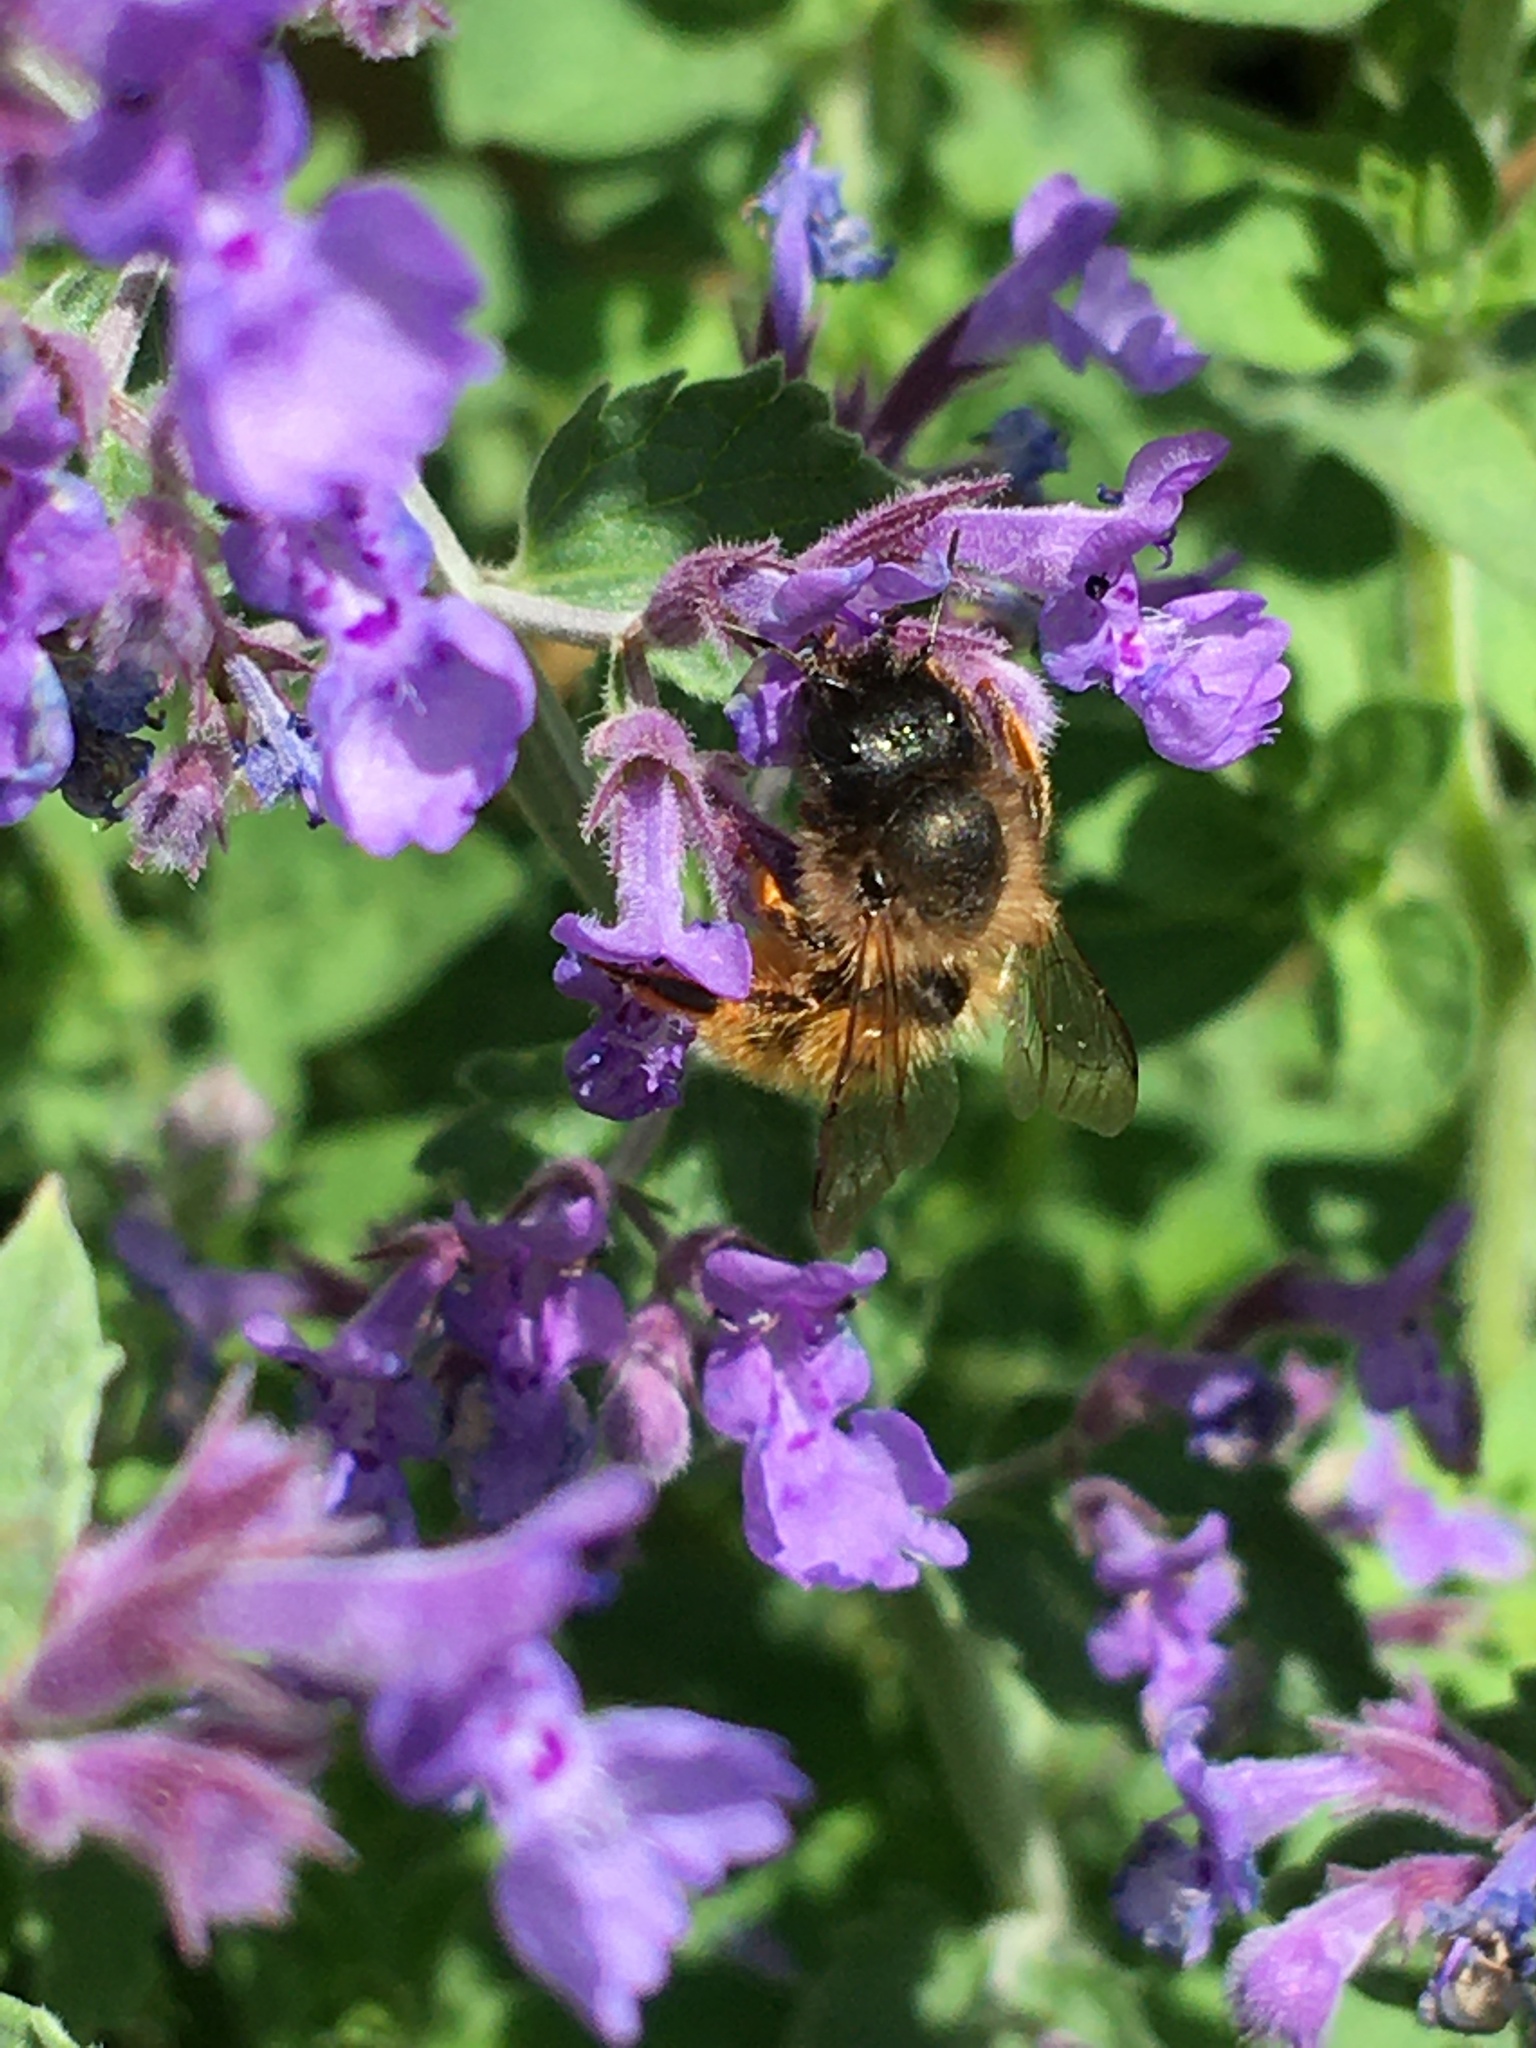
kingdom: Animalia
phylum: Arthropoda
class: Insecta
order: Hymenoptera
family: Megachilidae
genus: Osmia
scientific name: Osmia bicornis
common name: Red mason bee
